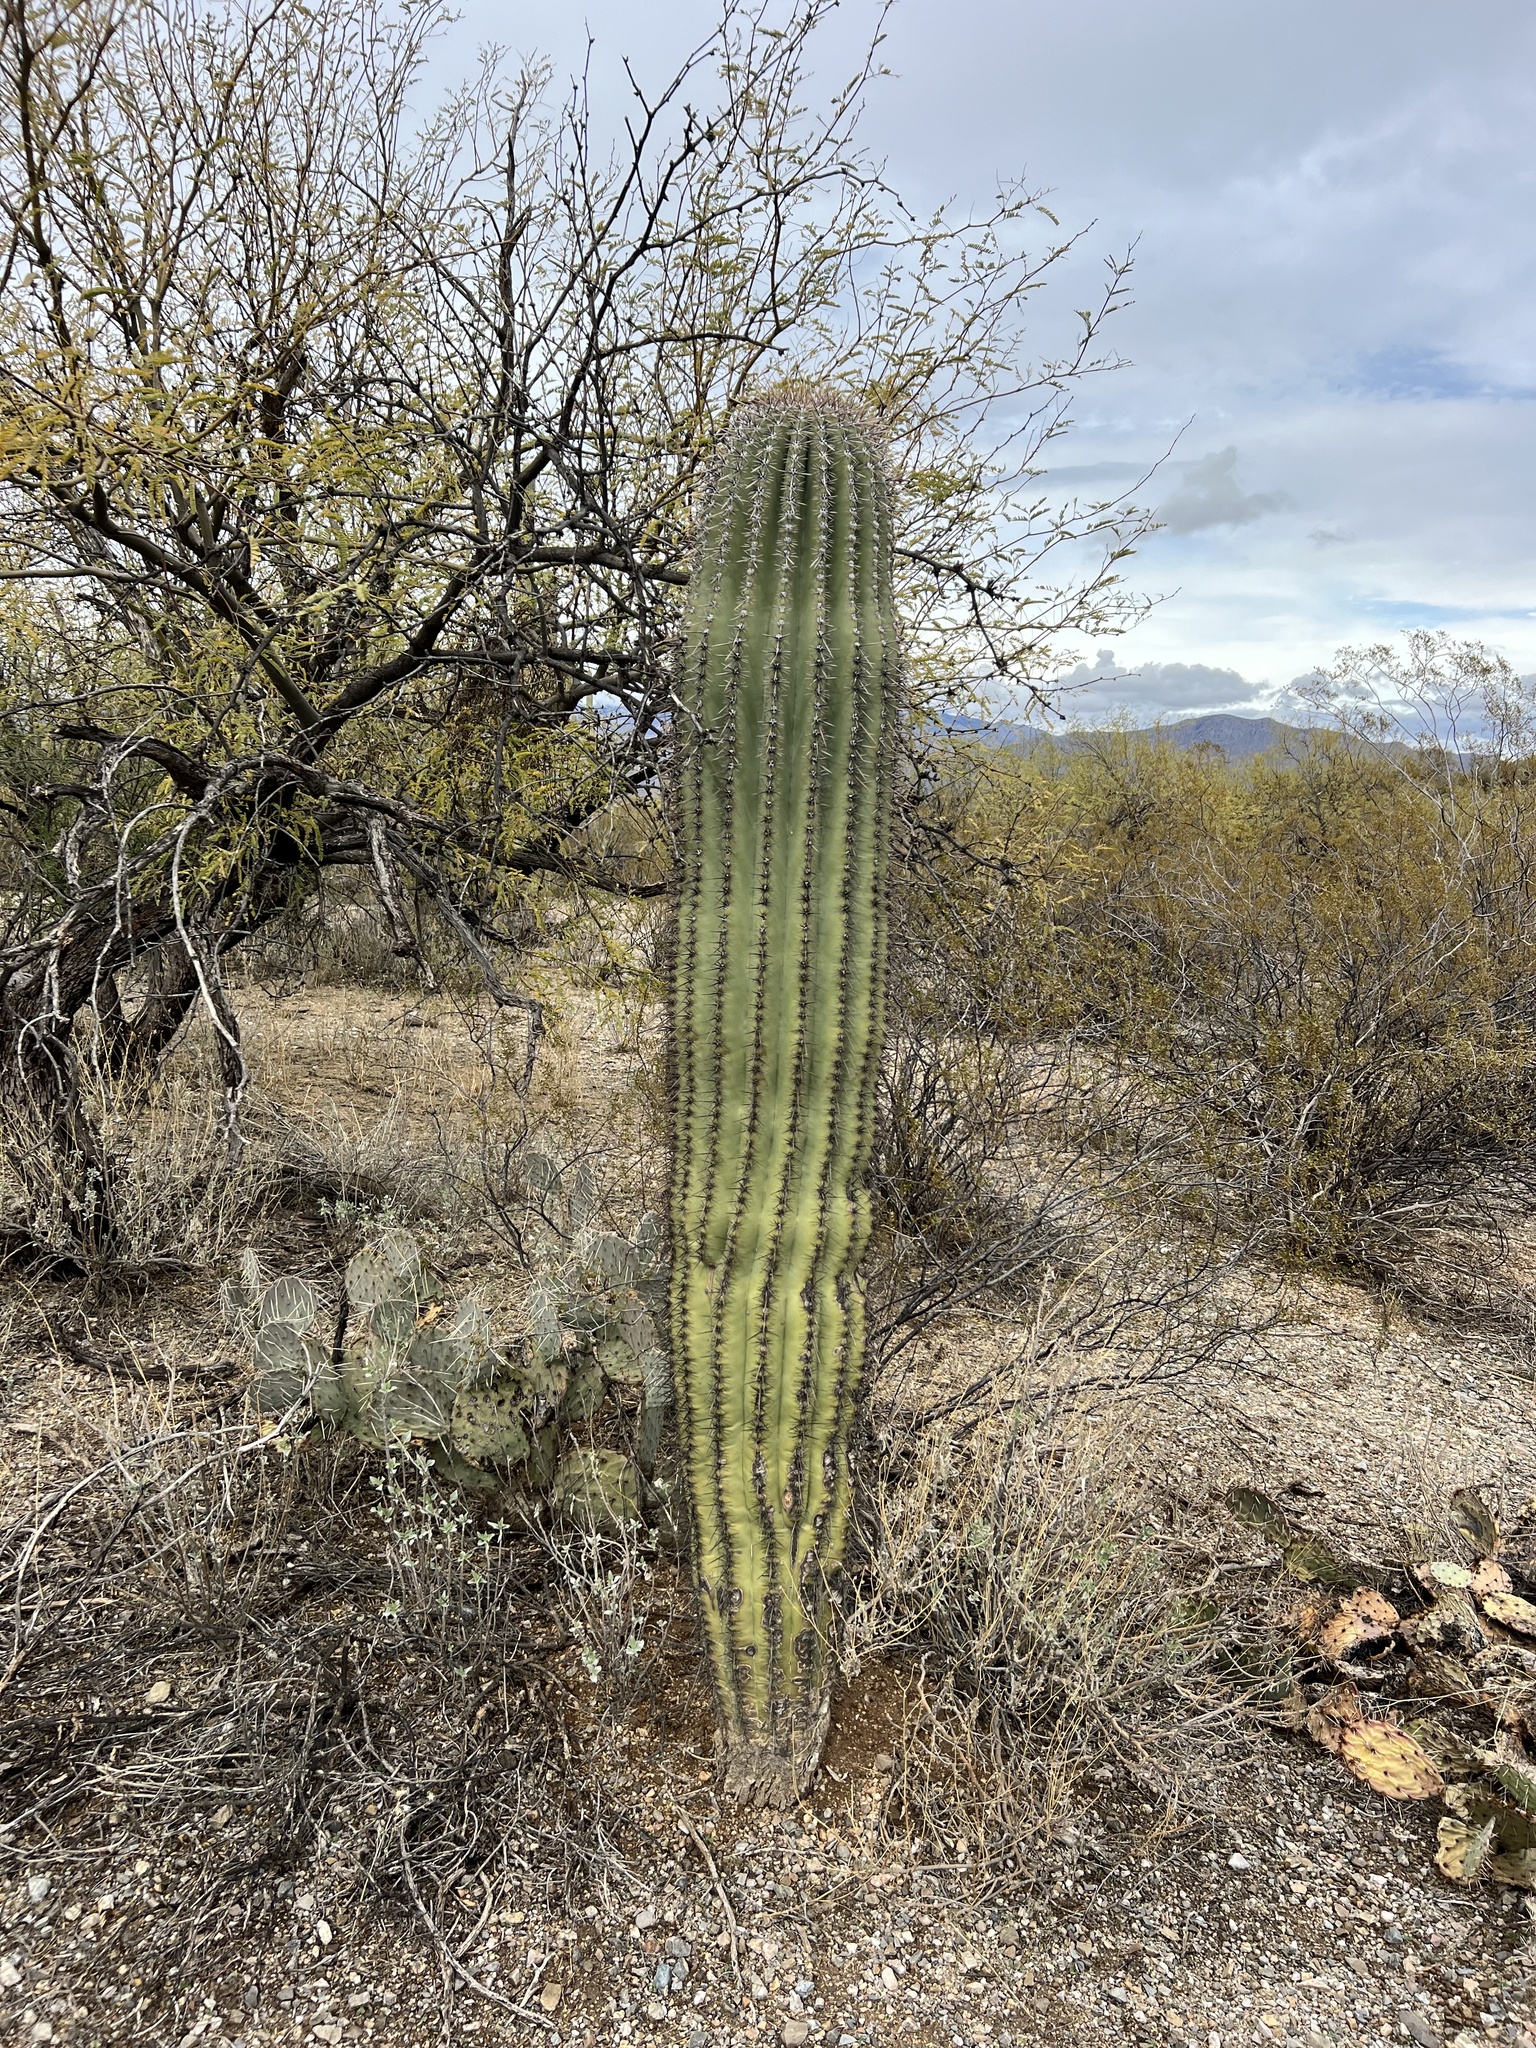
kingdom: Plantae
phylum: Tracheophyta
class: Magnoliopsida
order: Caryophyllales
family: Cactaceae
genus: Carnegiea
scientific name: Carnegiea gigantea
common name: Saguaro
